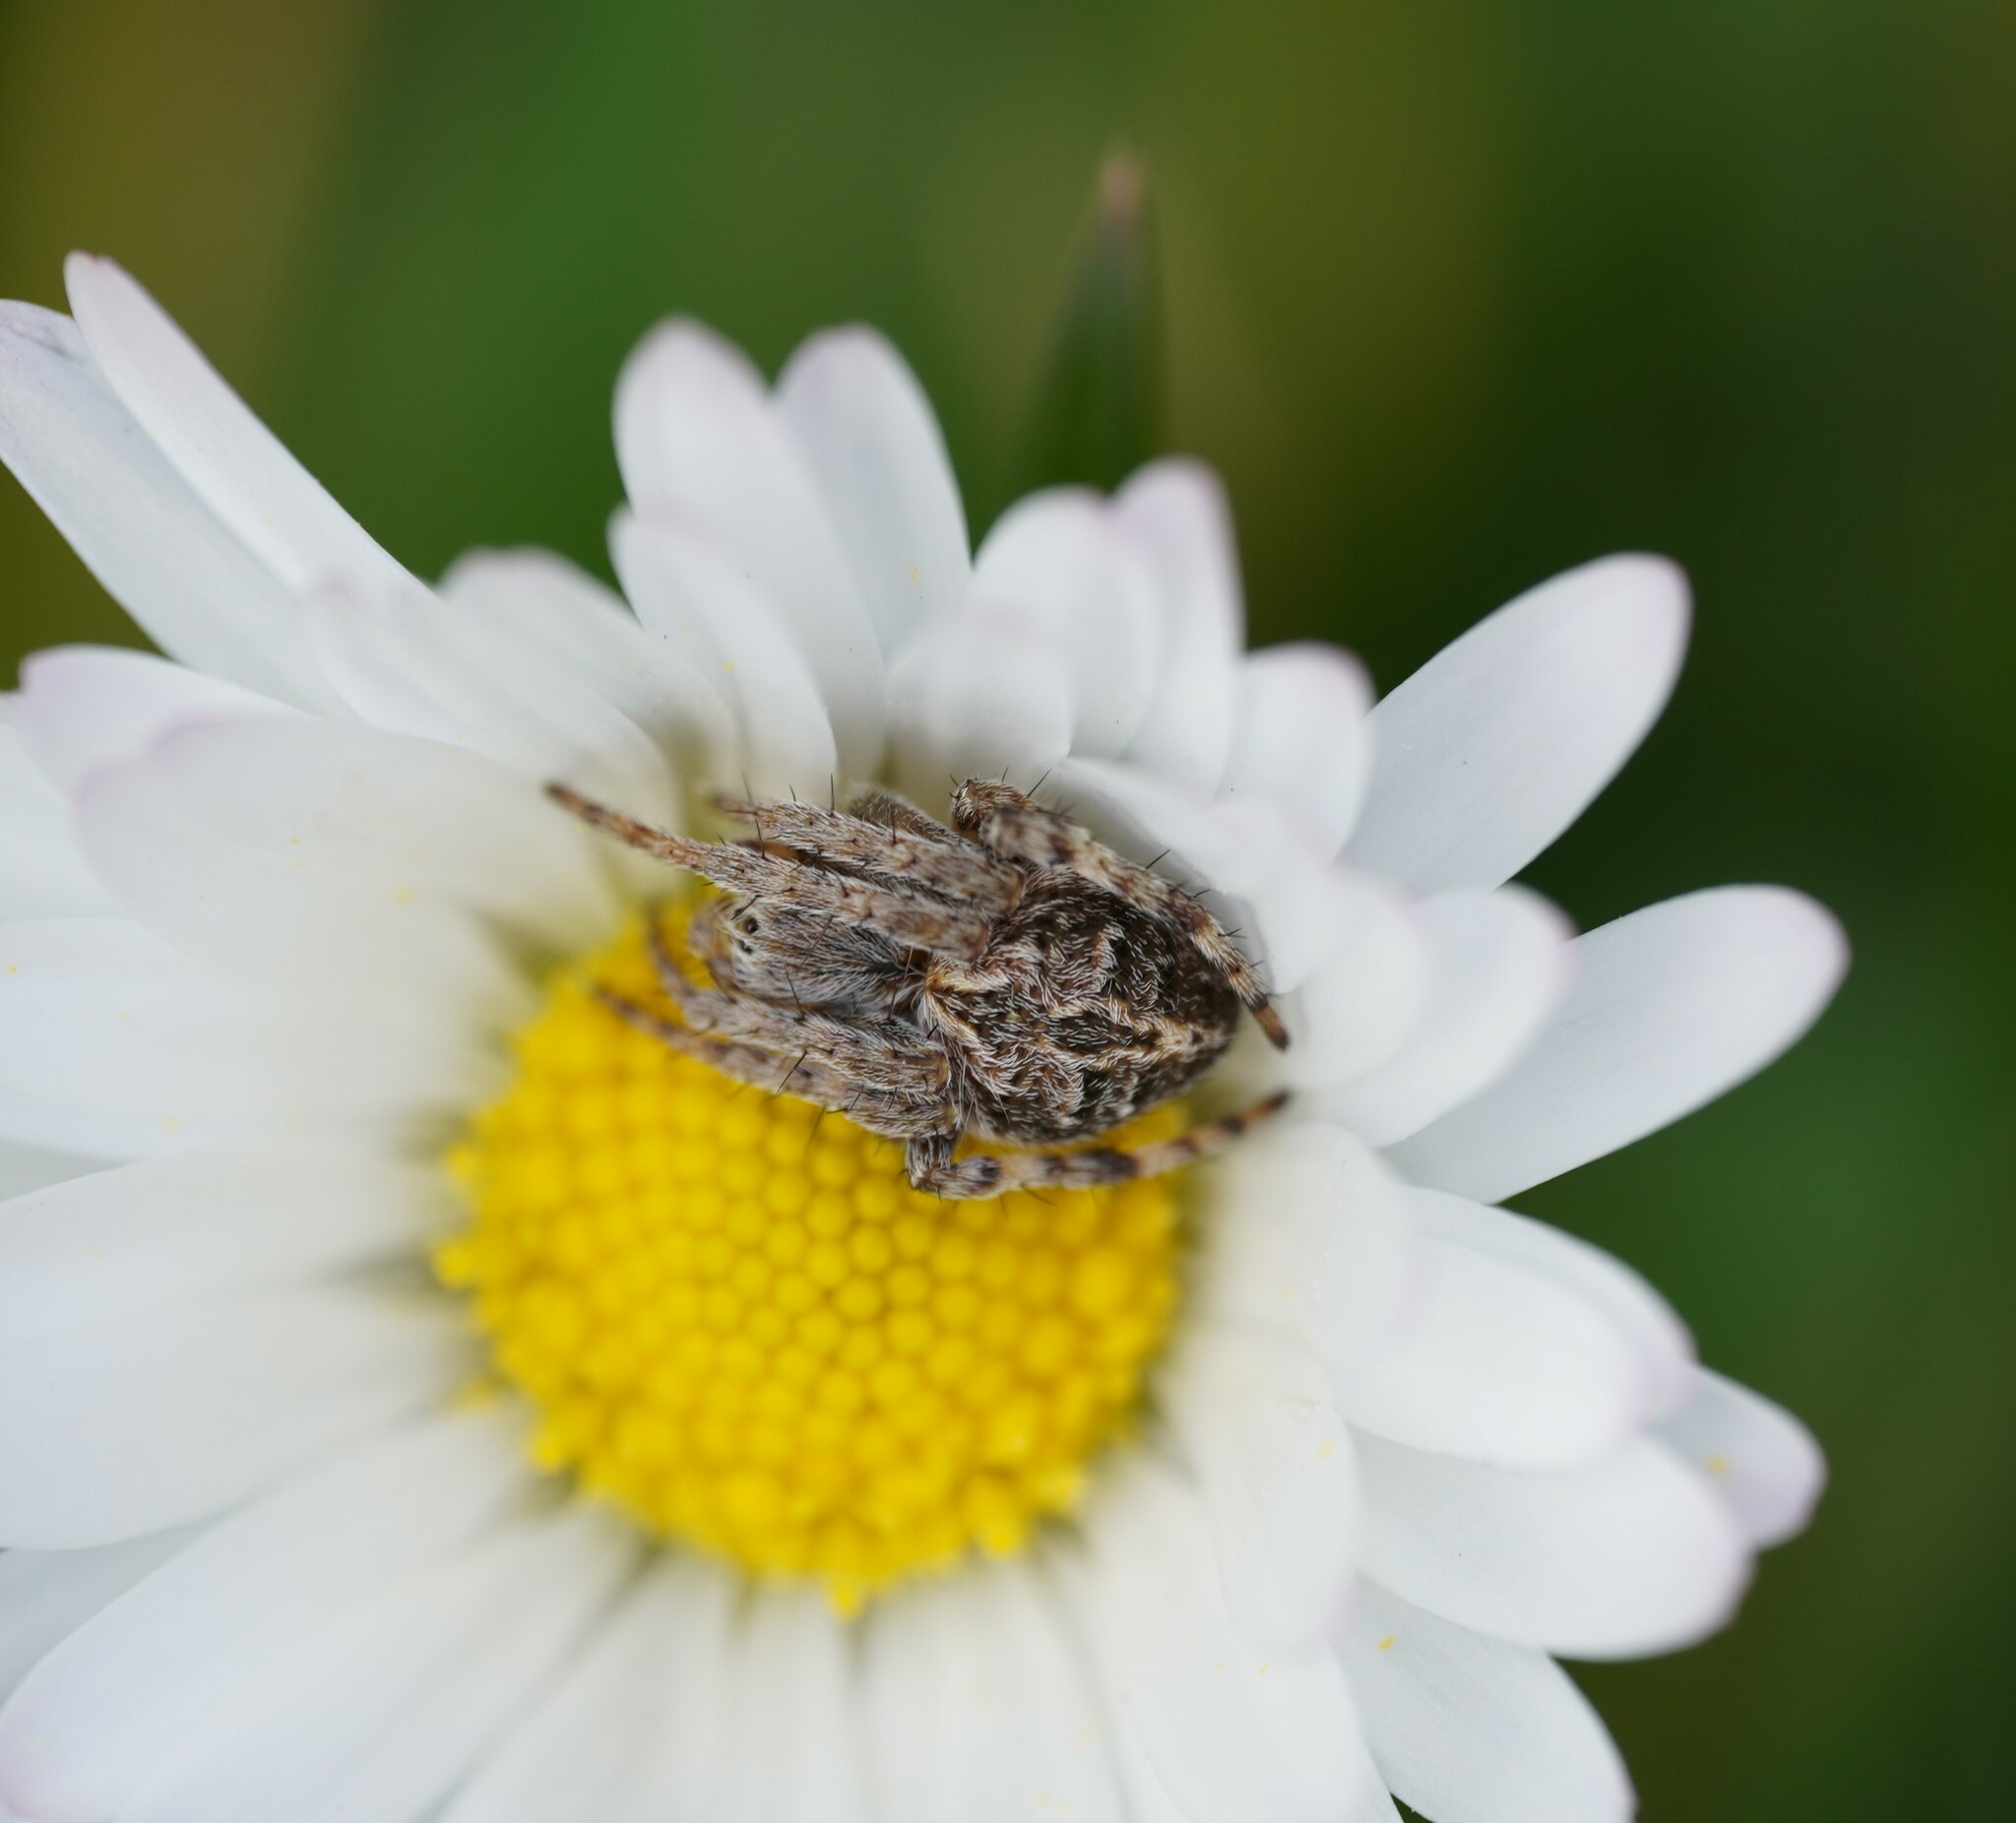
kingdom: Animalia
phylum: Arthropoda
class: Arachnida
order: Araneae
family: Araneidae
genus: Agalenatea
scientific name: Agalenatea redii
